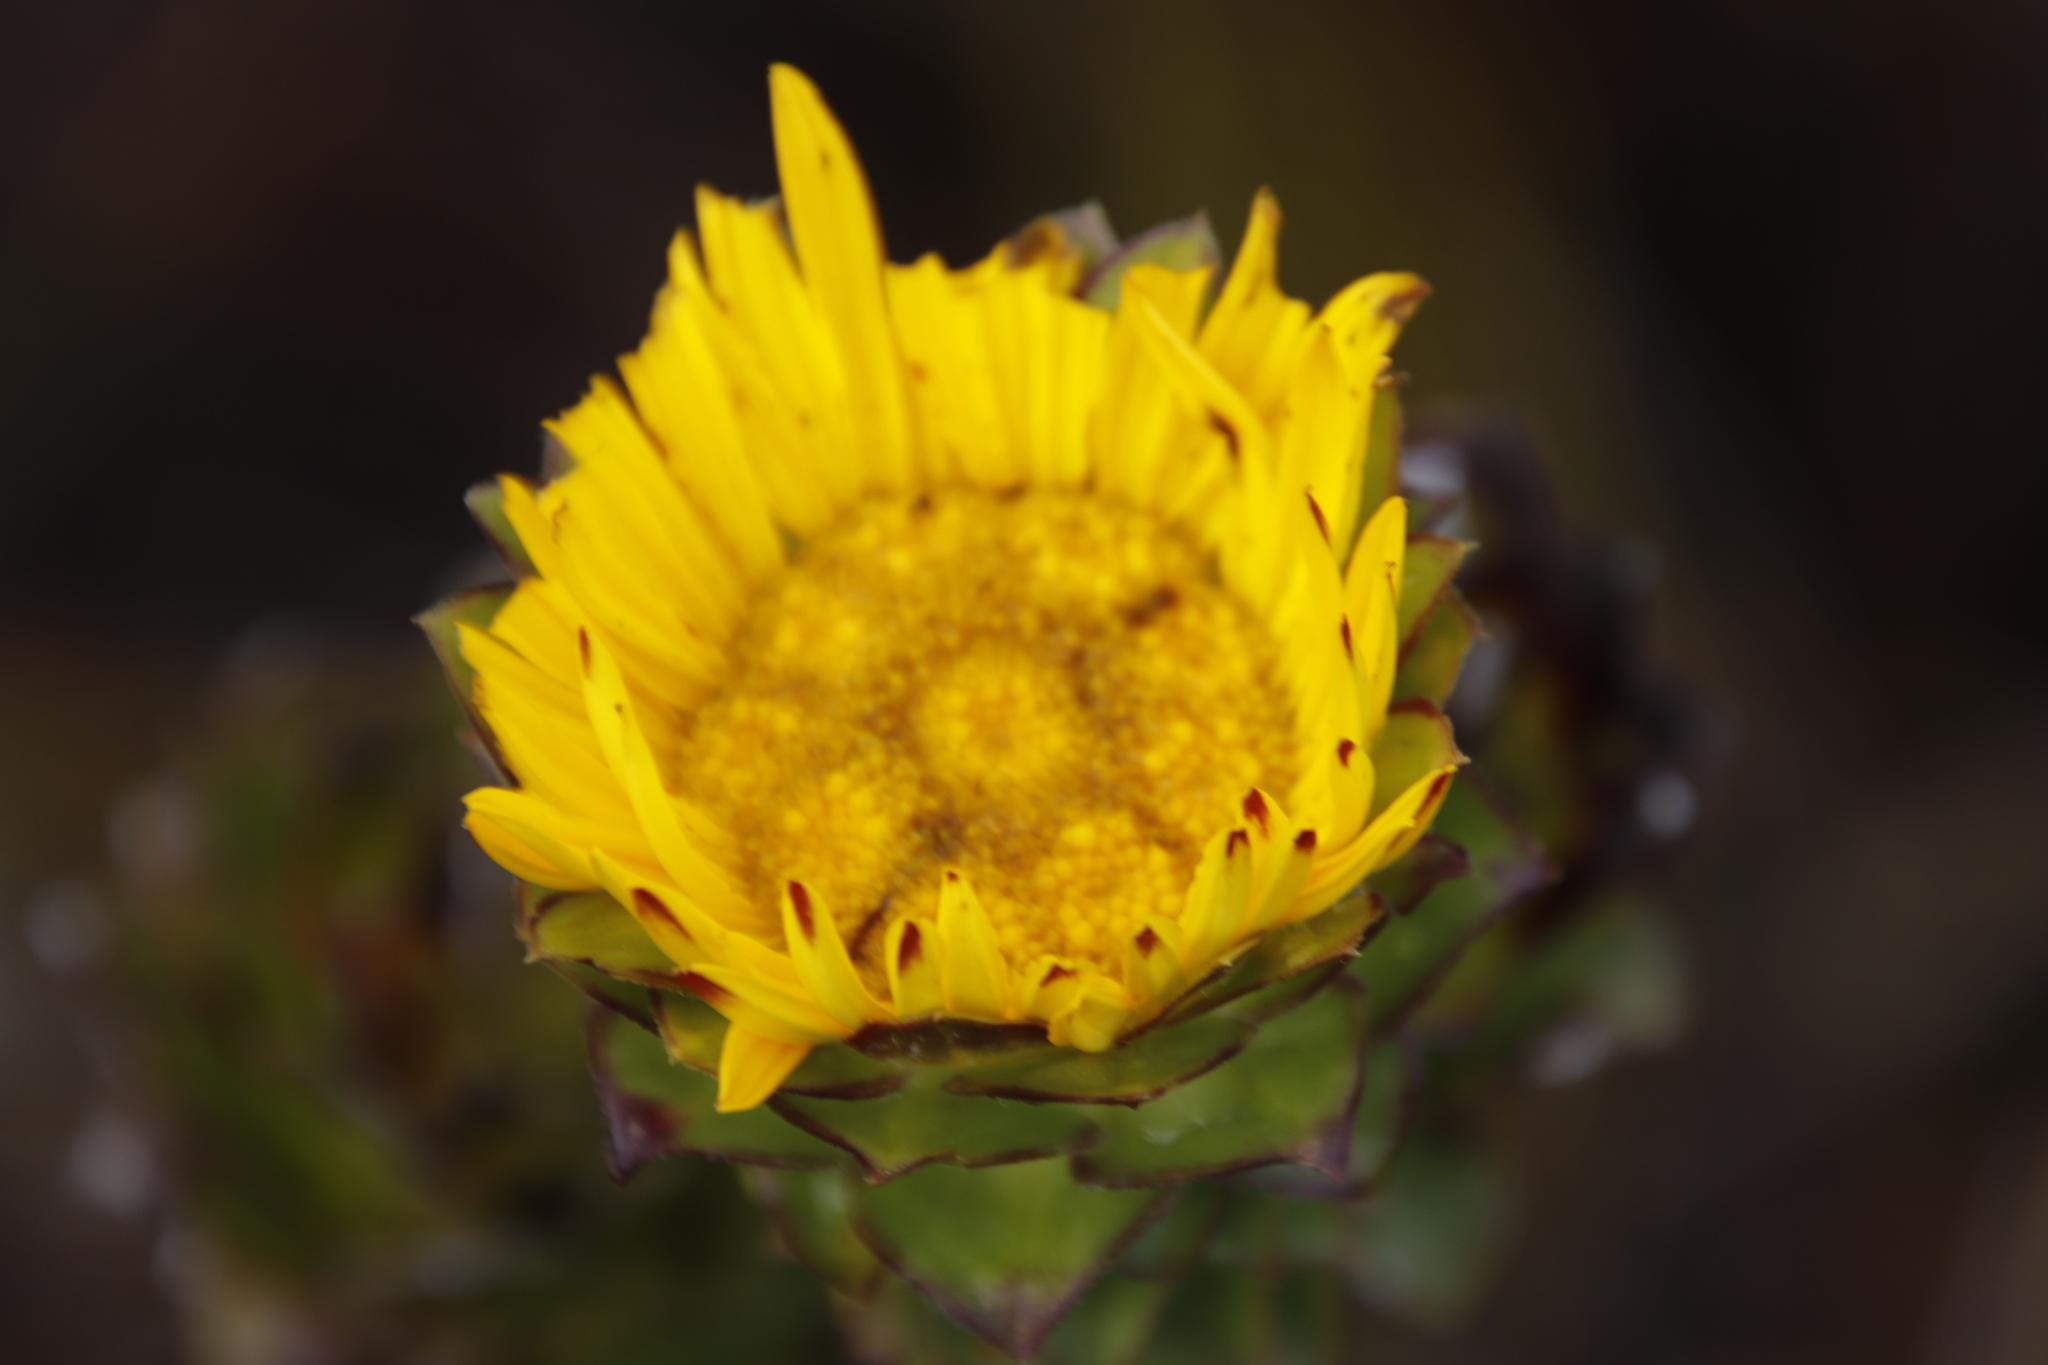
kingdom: Plantae
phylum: Tracheophyta
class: Magnoliopsida
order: Asterales
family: Asteraceae
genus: Oedera
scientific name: Oedera imbricata
